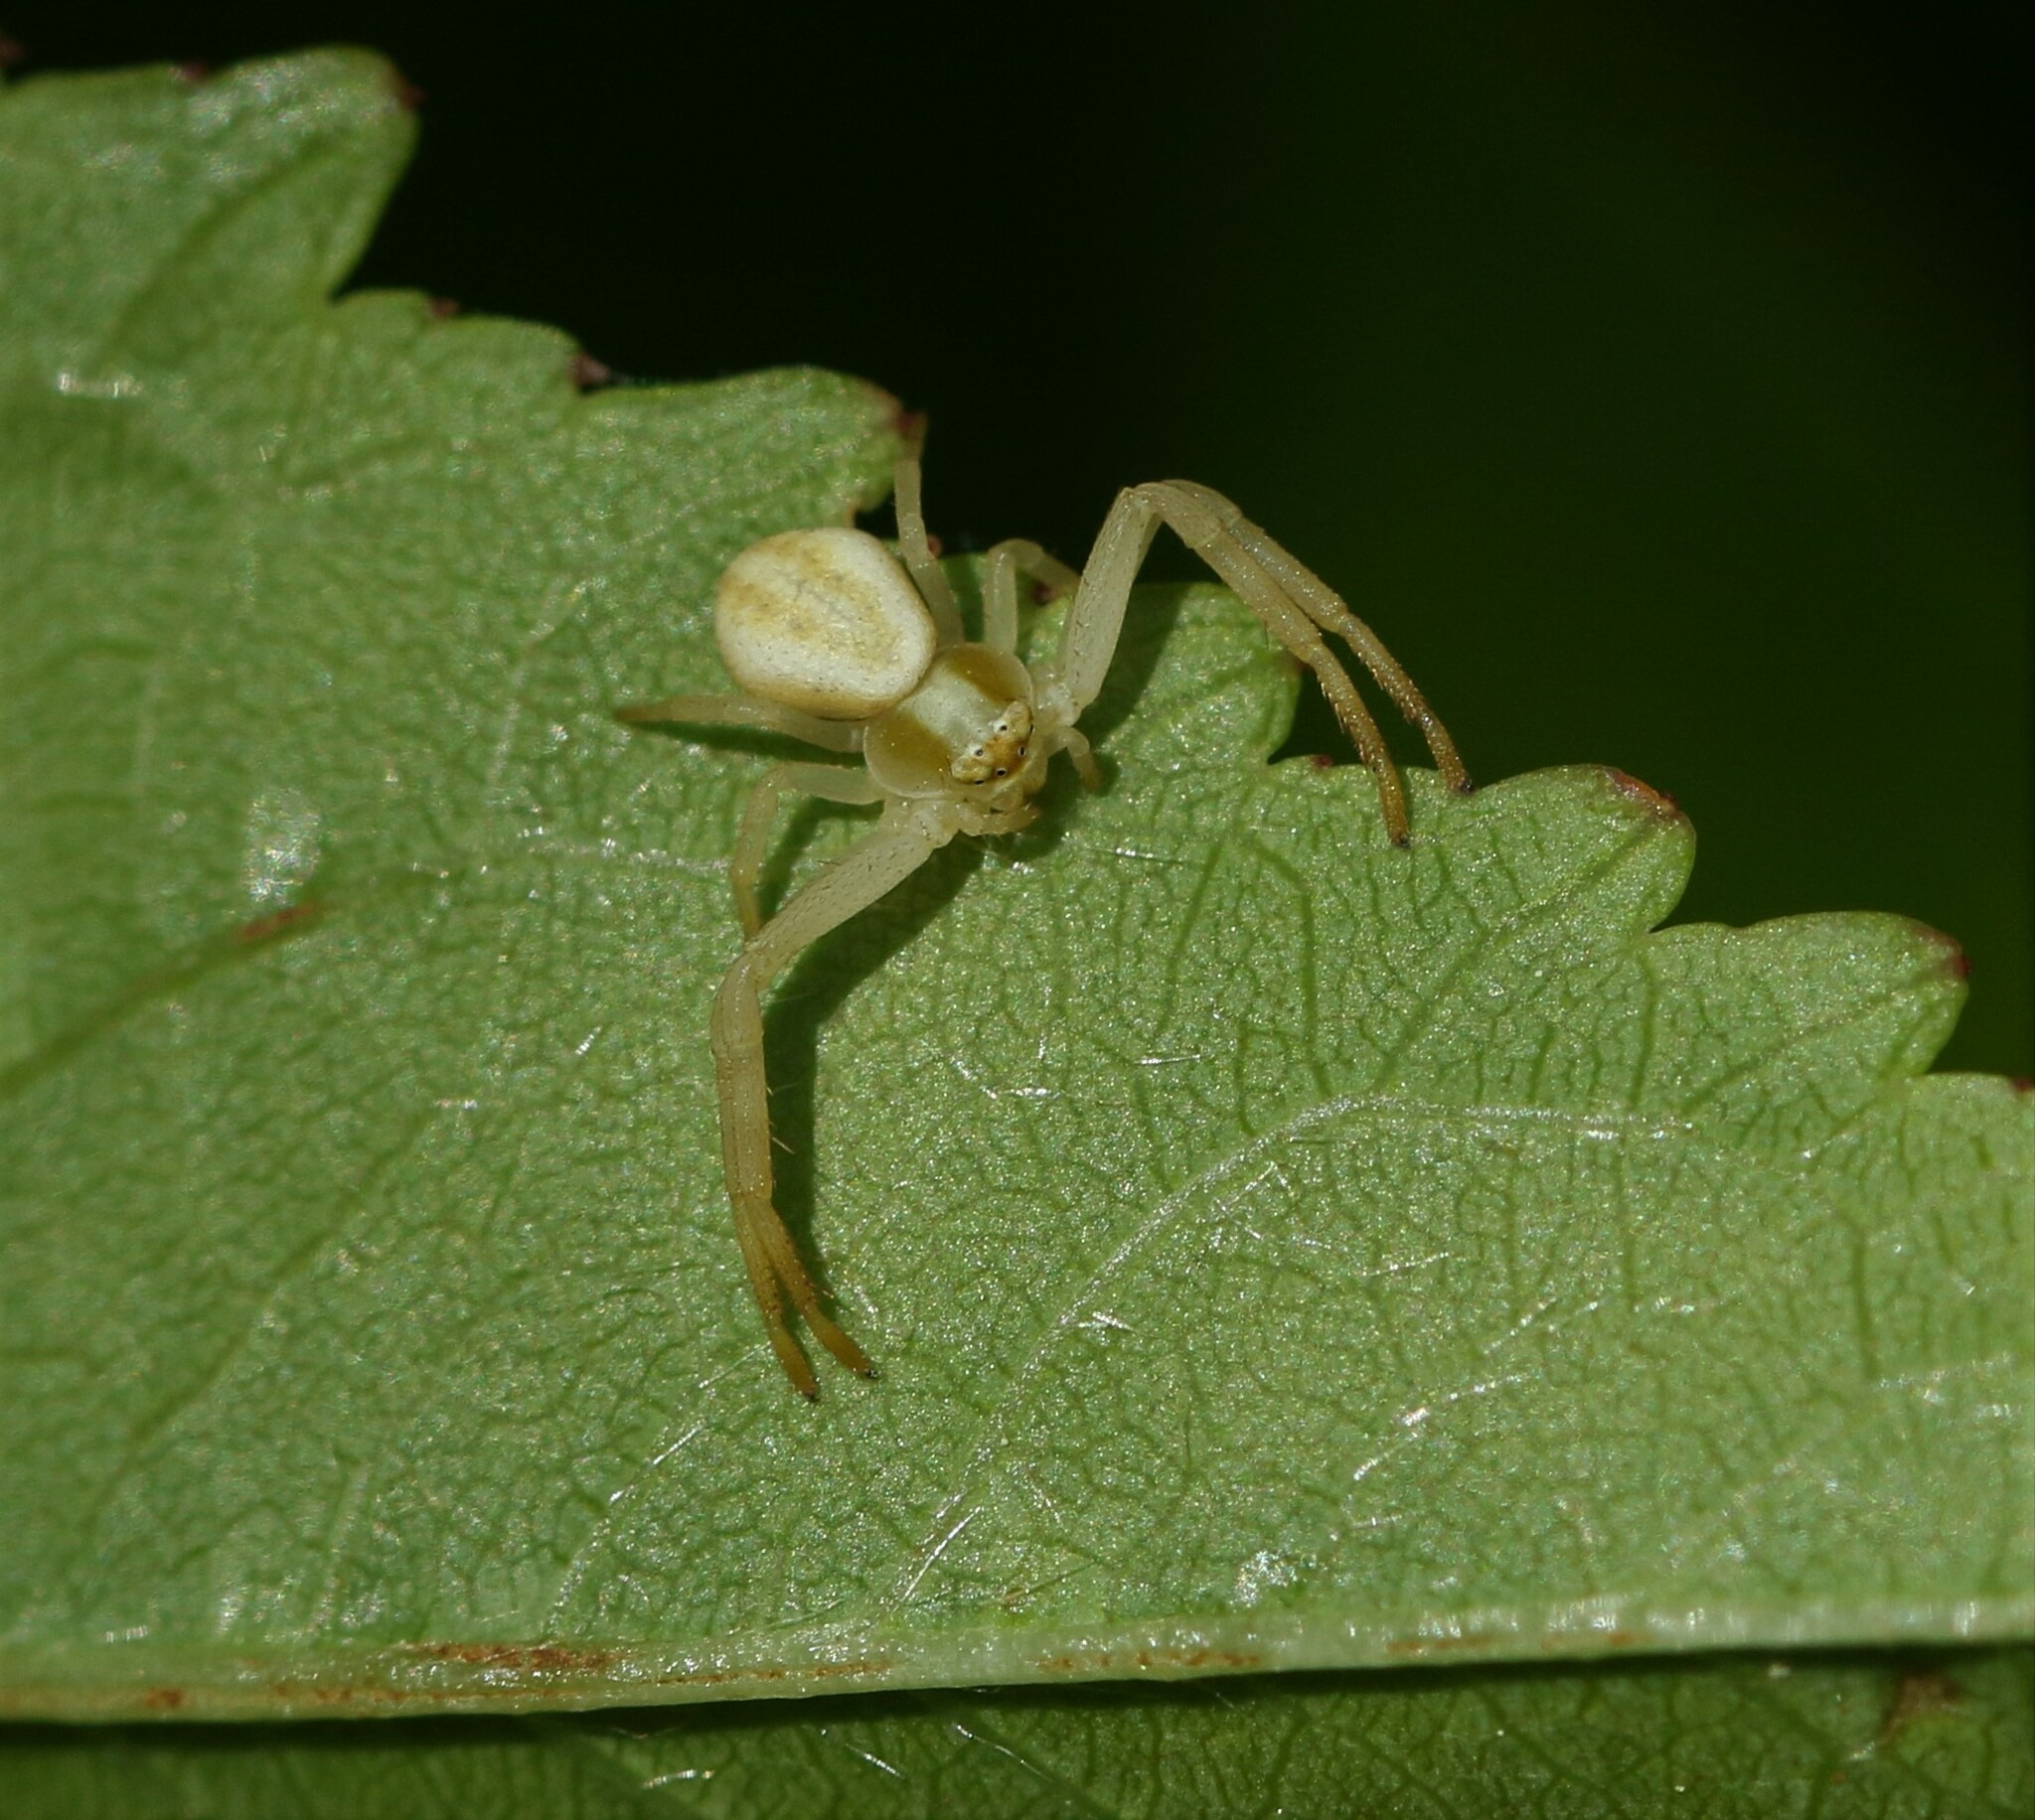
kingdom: Animalia
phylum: Arthropoda
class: Arachnida
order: Araneae
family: Thomisidae
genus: Misumena
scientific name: Misumena vatia
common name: Goldenrod crab spider
